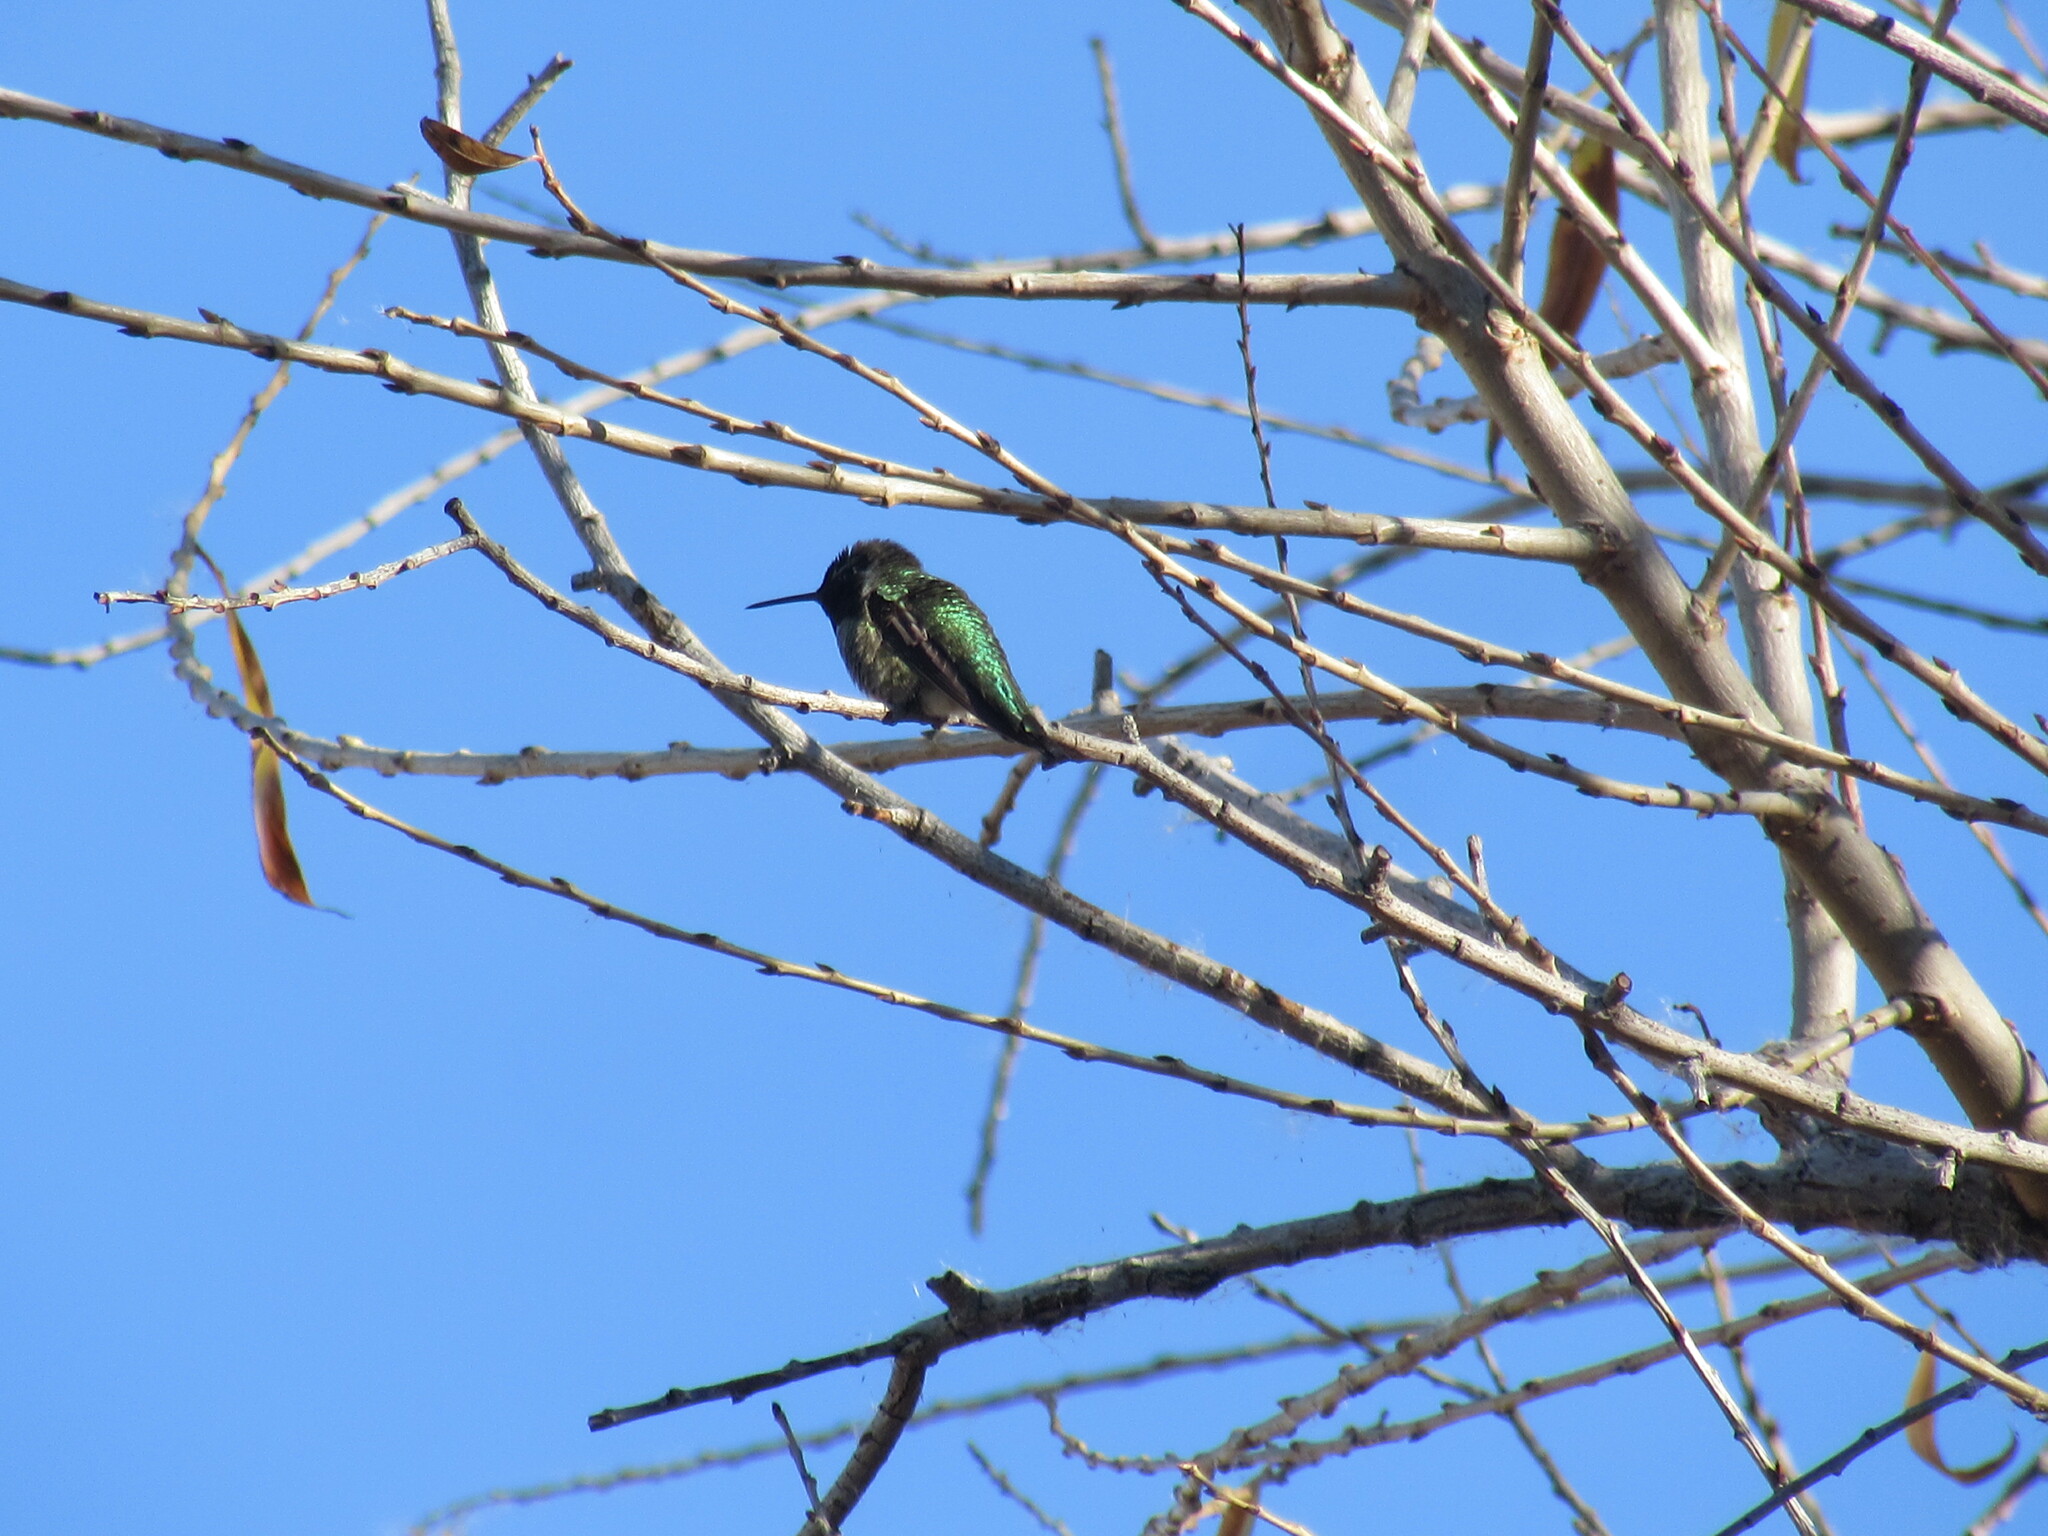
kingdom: Animalia
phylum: Chordata
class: Aves
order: Apodiformes
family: Trochilidae
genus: Calypte
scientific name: Calypte anna
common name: Anna's hummingbird
